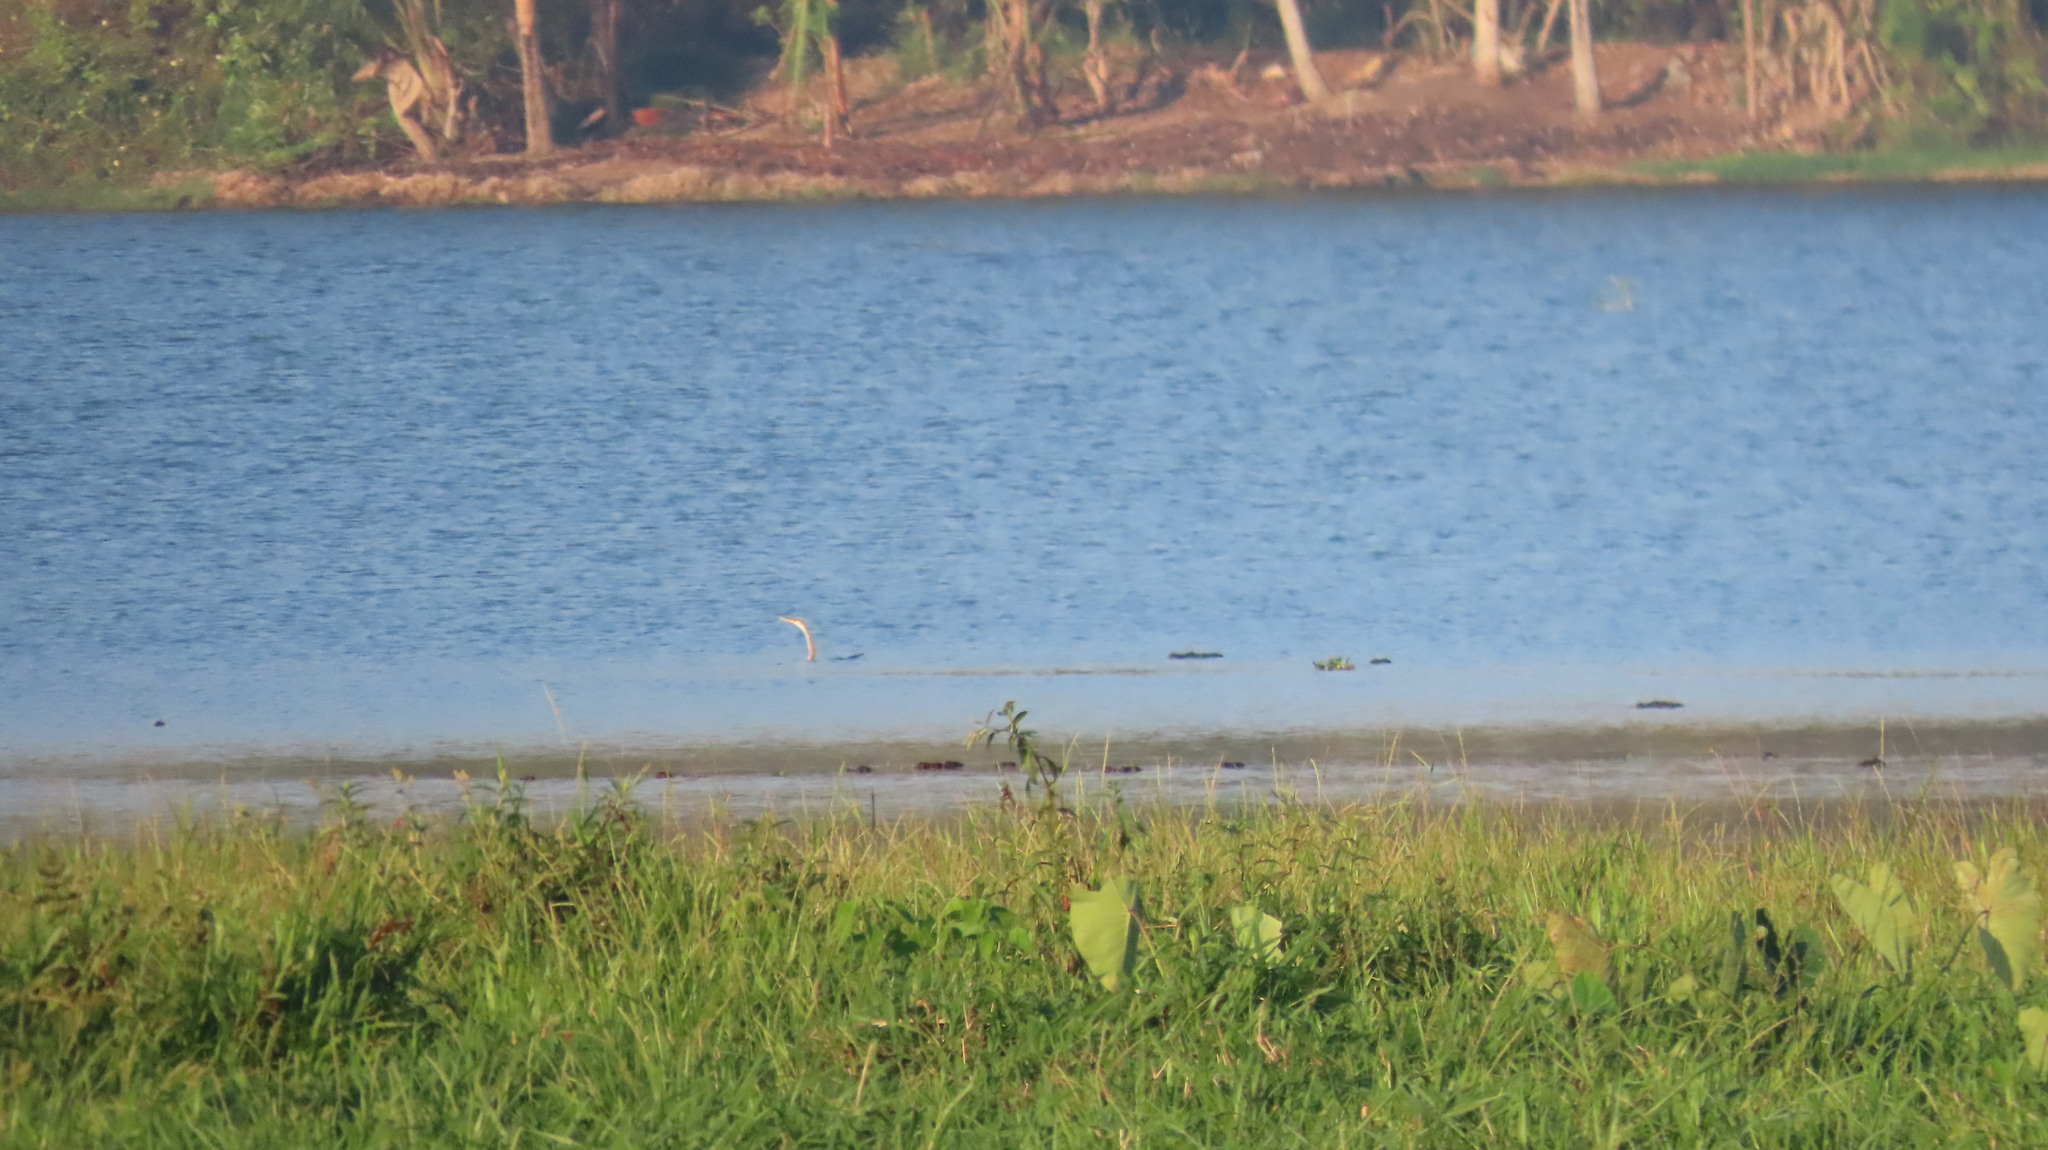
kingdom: Animalia
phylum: Chordata
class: Aves
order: Suliformes
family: Anhingidae
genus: Anhinga
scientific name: Anhinga melanogaster
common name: Oriental darter
